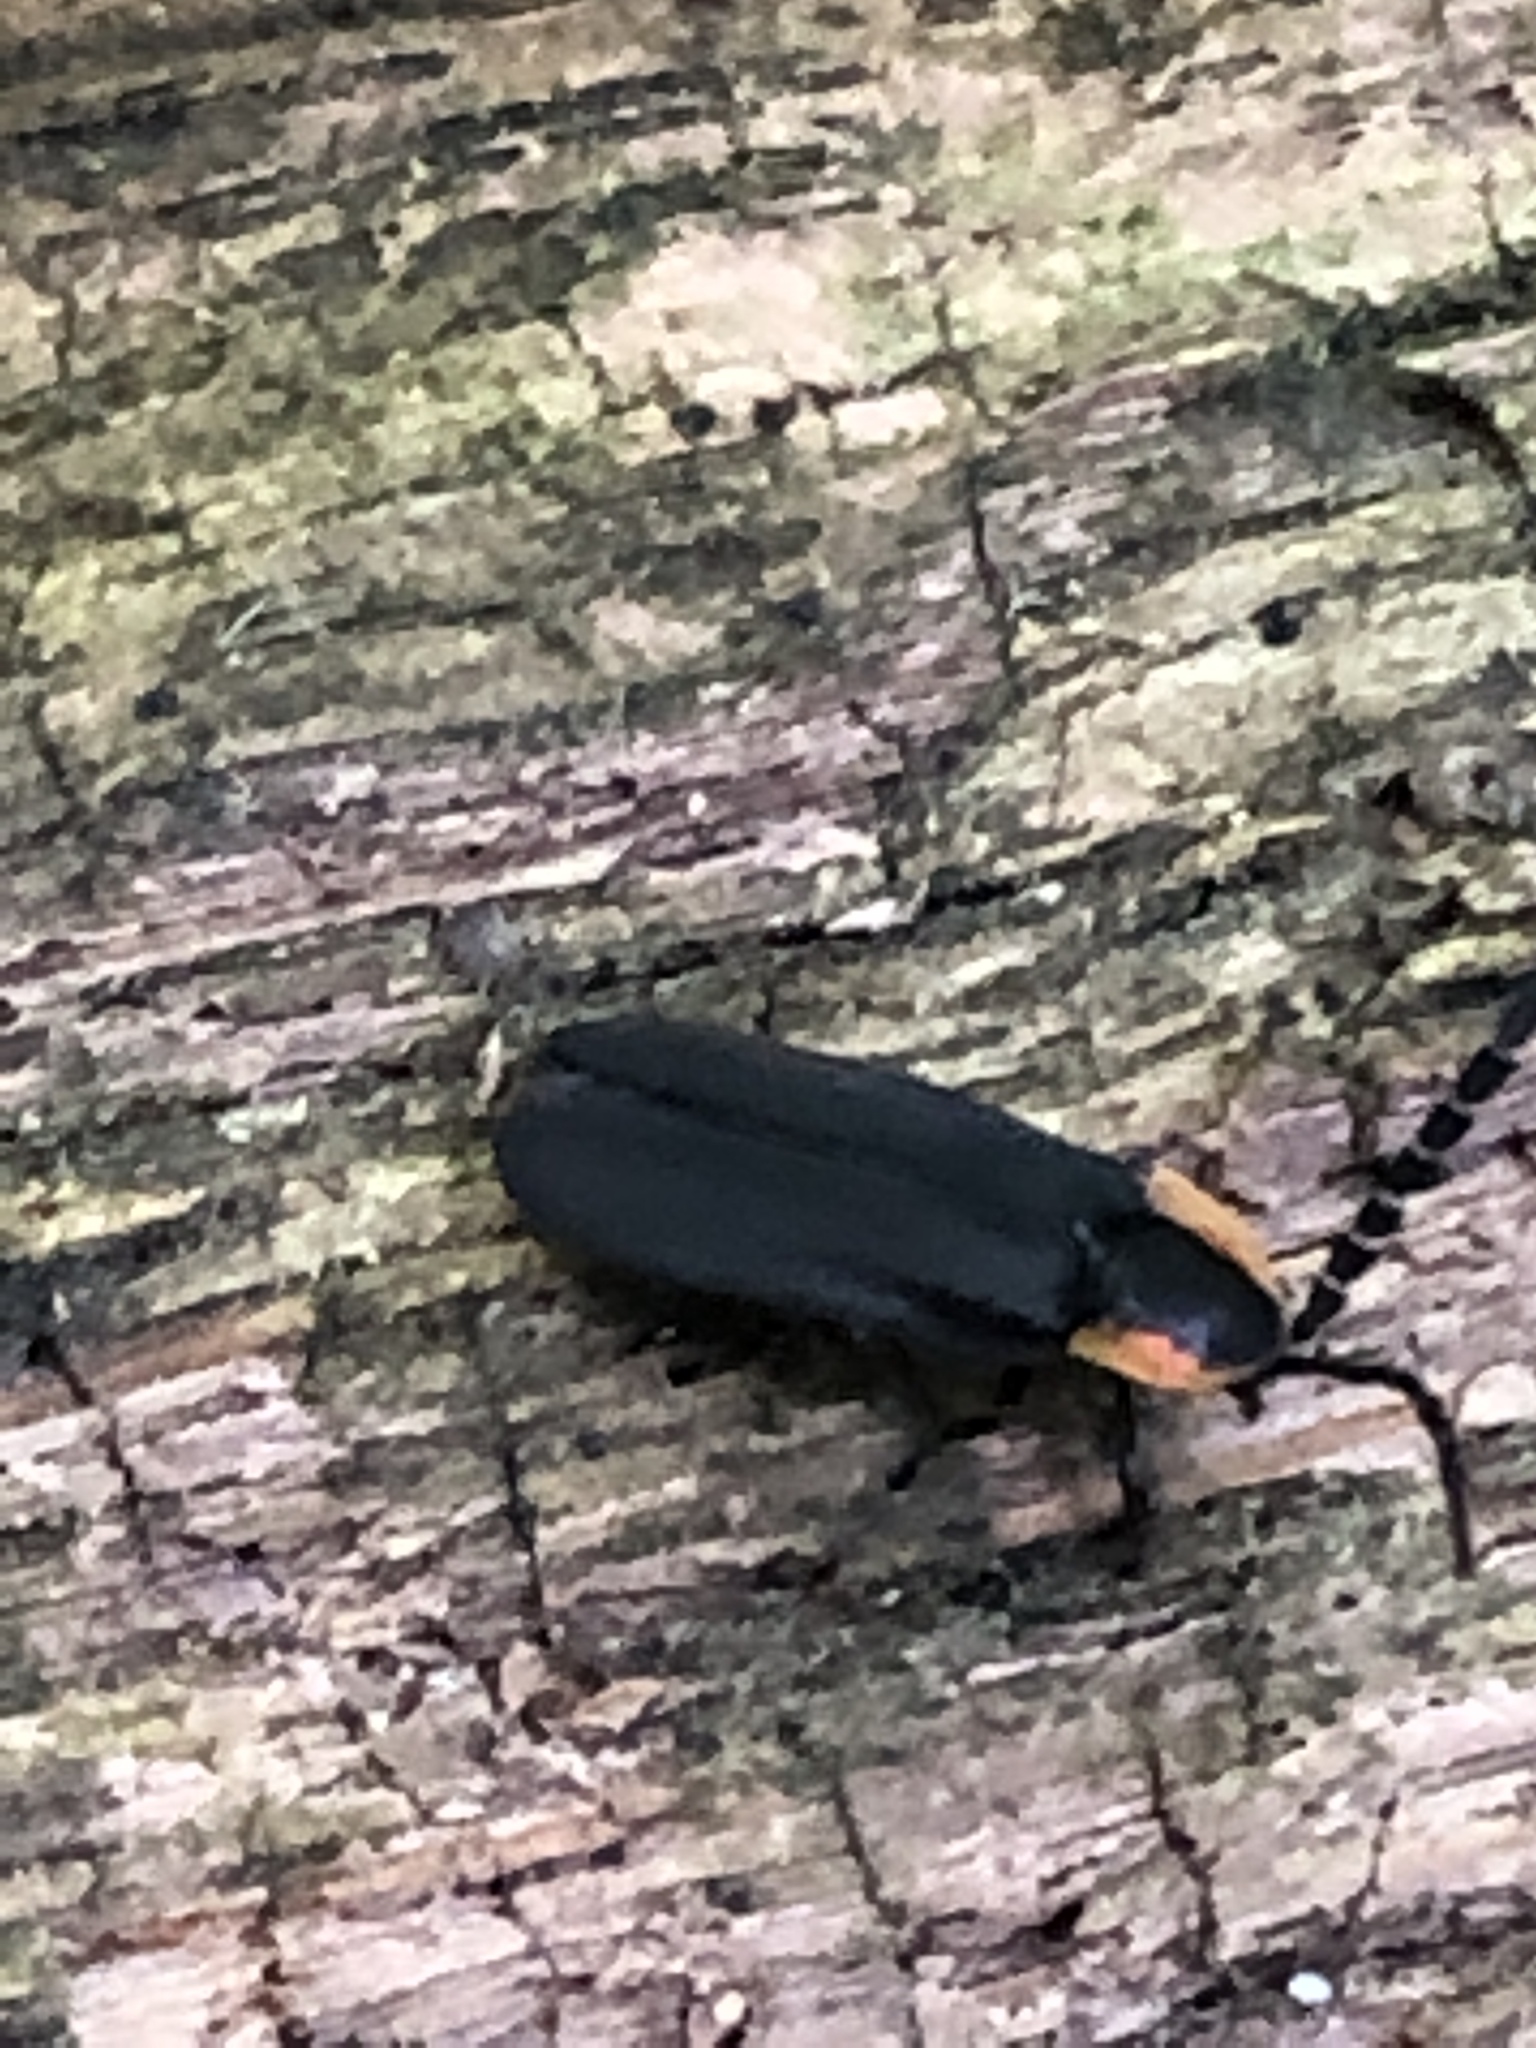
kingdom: Animalia
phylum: Arthropoda
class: Insecta
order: Coleoptera
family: Lampyridae
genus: Lucidota
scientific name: Lucidota atra
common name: Black firefly
